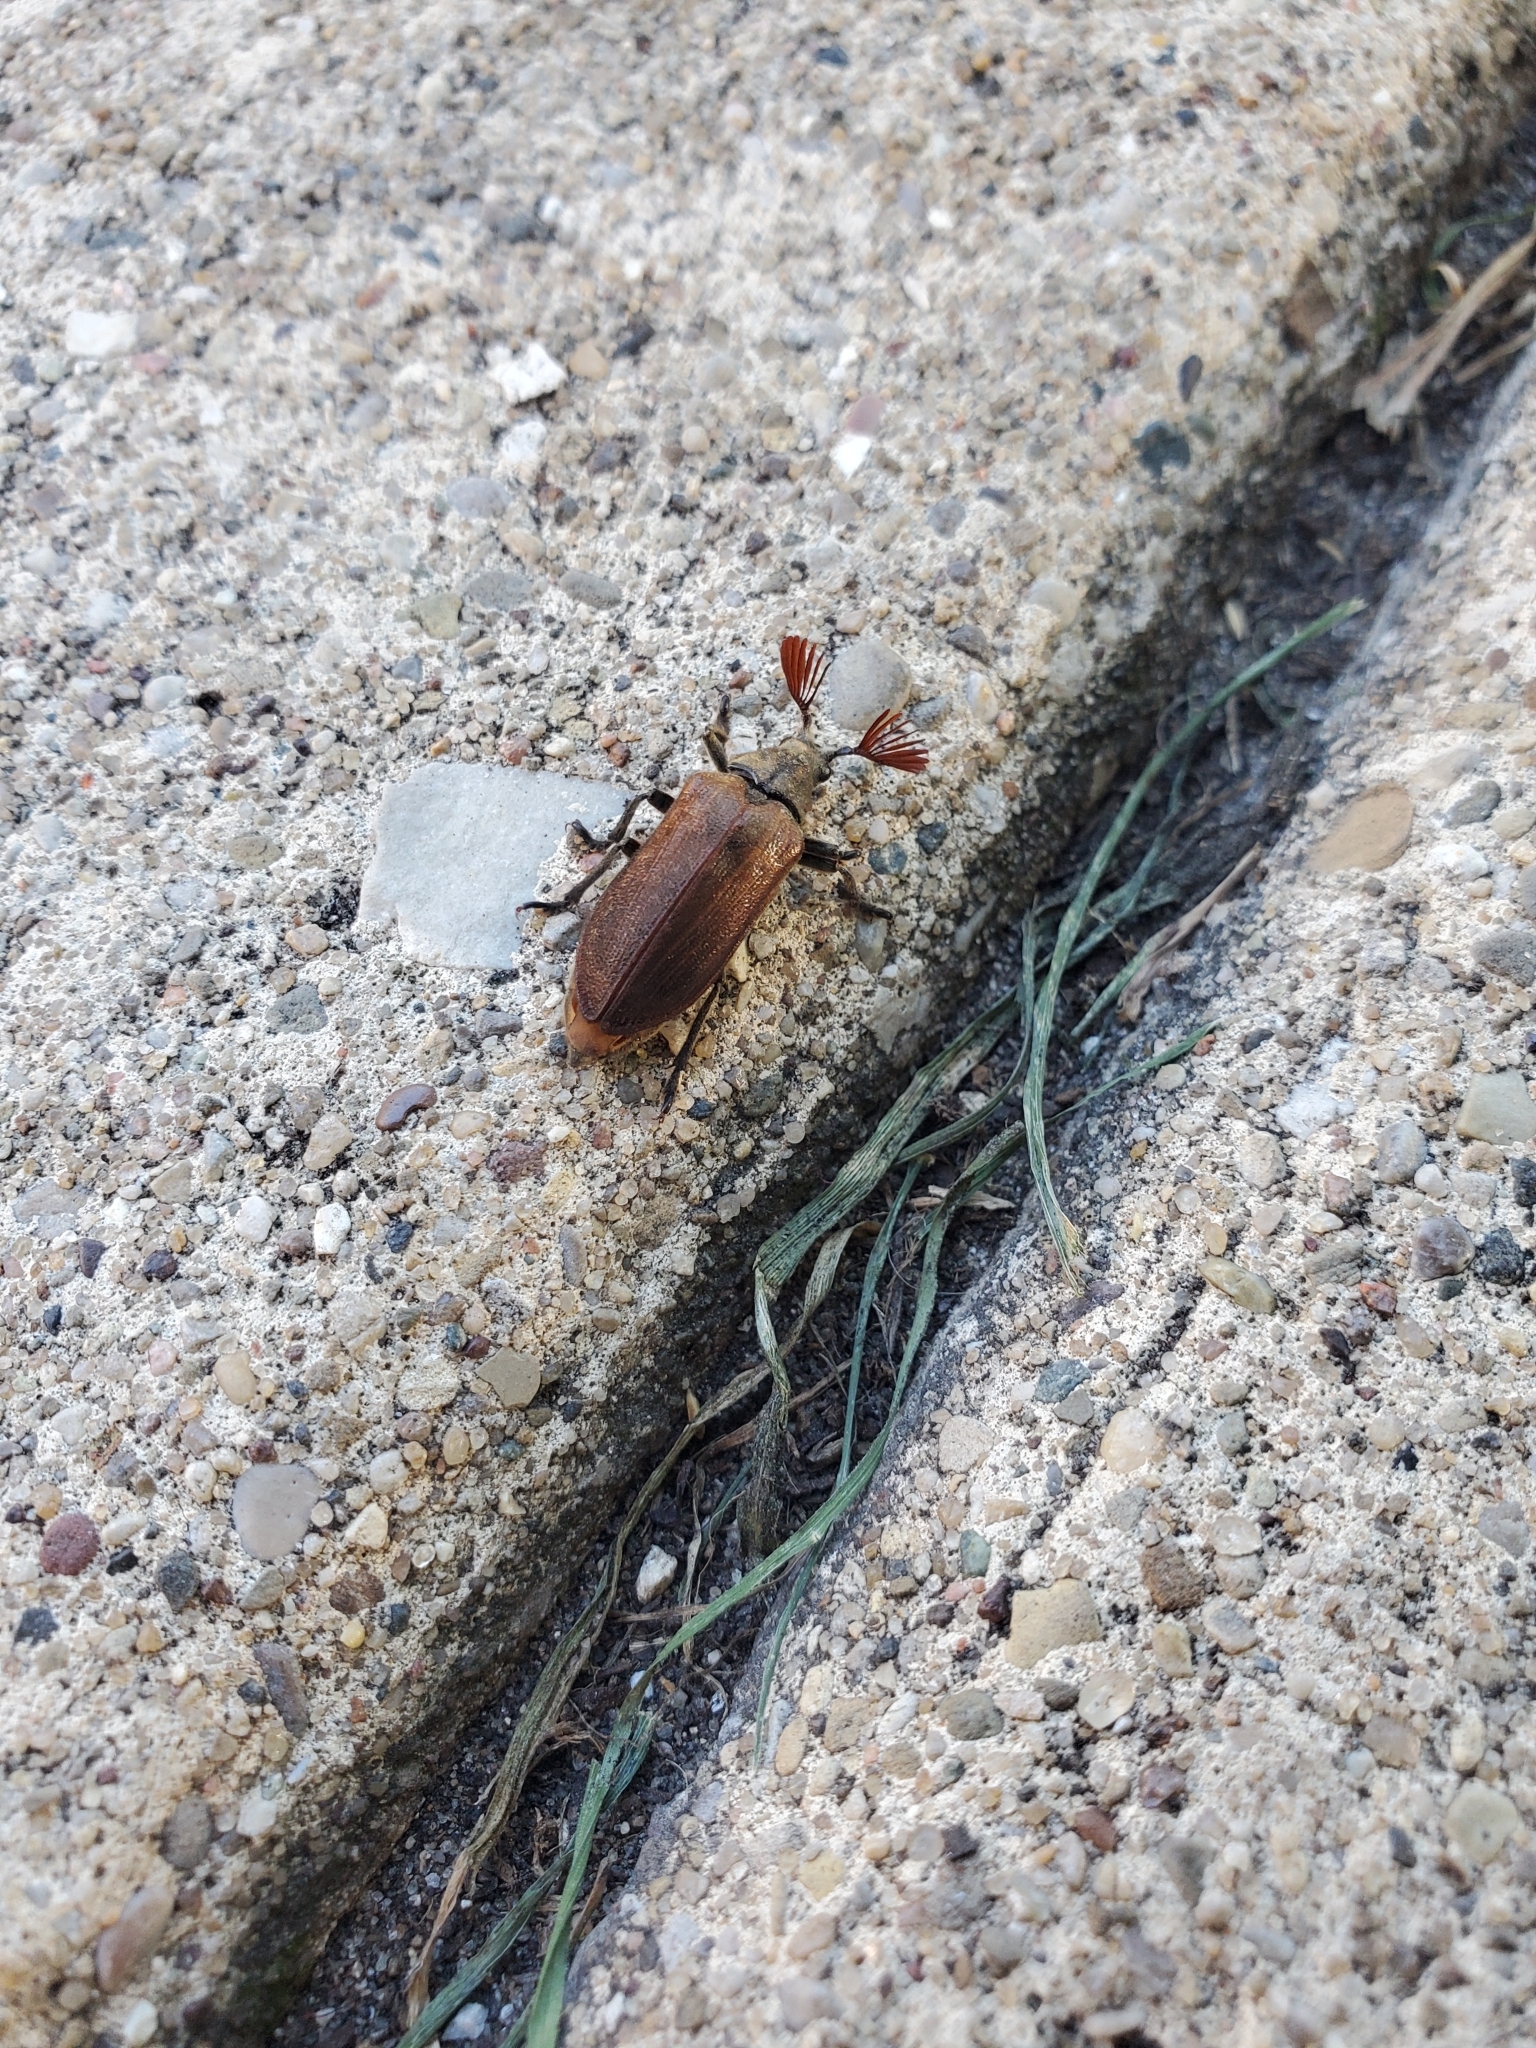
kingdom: Animalia
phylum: Arthropoda
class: Insecta
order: Coleoptera
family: Rhipiceridae
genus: Sandalus
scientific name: Sandalus niger
